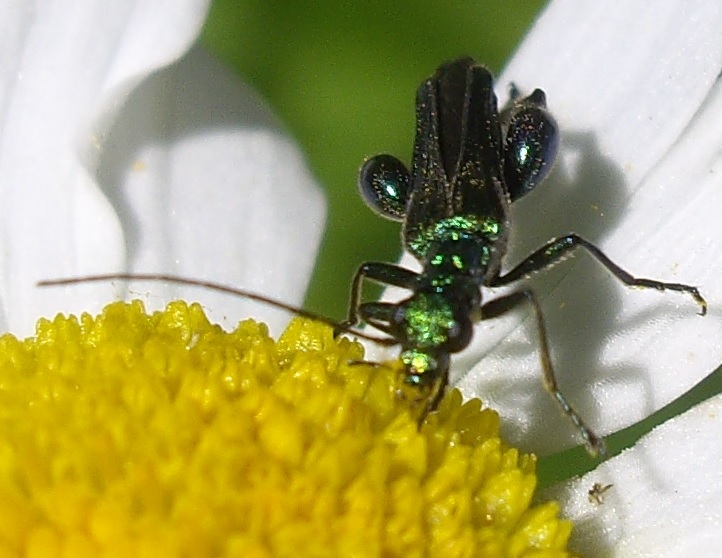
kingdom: Animalia
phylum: Arthropoda
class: Insecta
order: Coleoptera
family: Oedemeridae
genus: Oedemera
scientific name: Oedemera nobilis
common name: Swollen-thighed beetle
